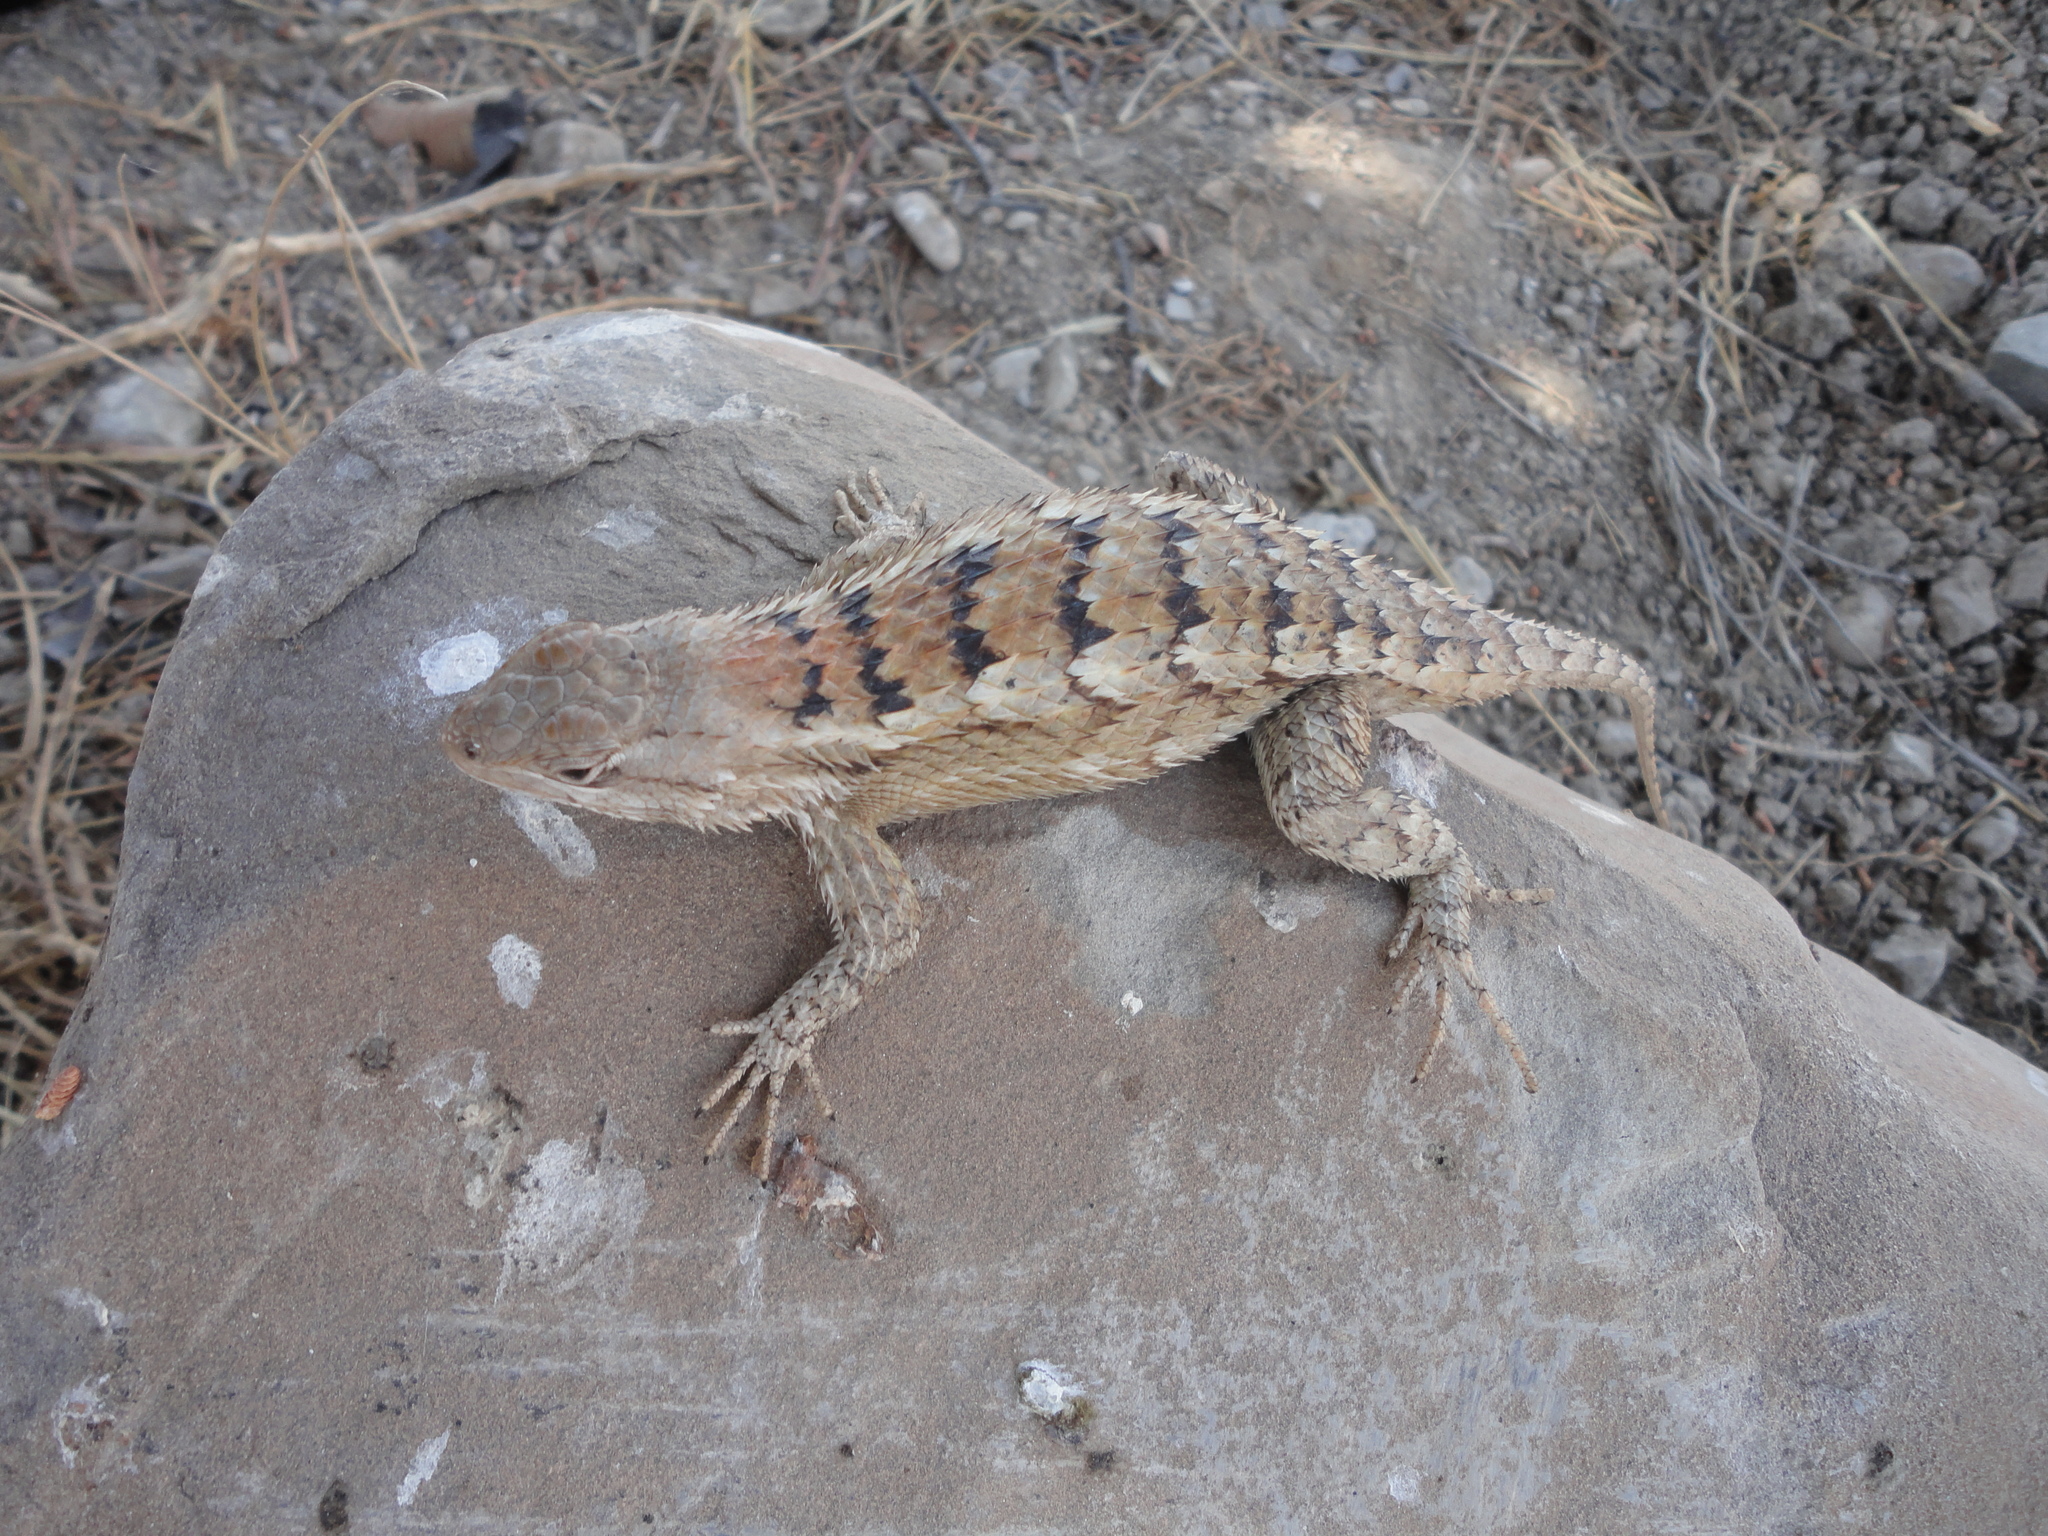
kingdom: Animalia
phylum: Chordata
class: Squamata
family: Phrynosomatidae
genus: Sceloporus
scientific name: Sceloporus olivaceus
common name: Texas spiny lizard
